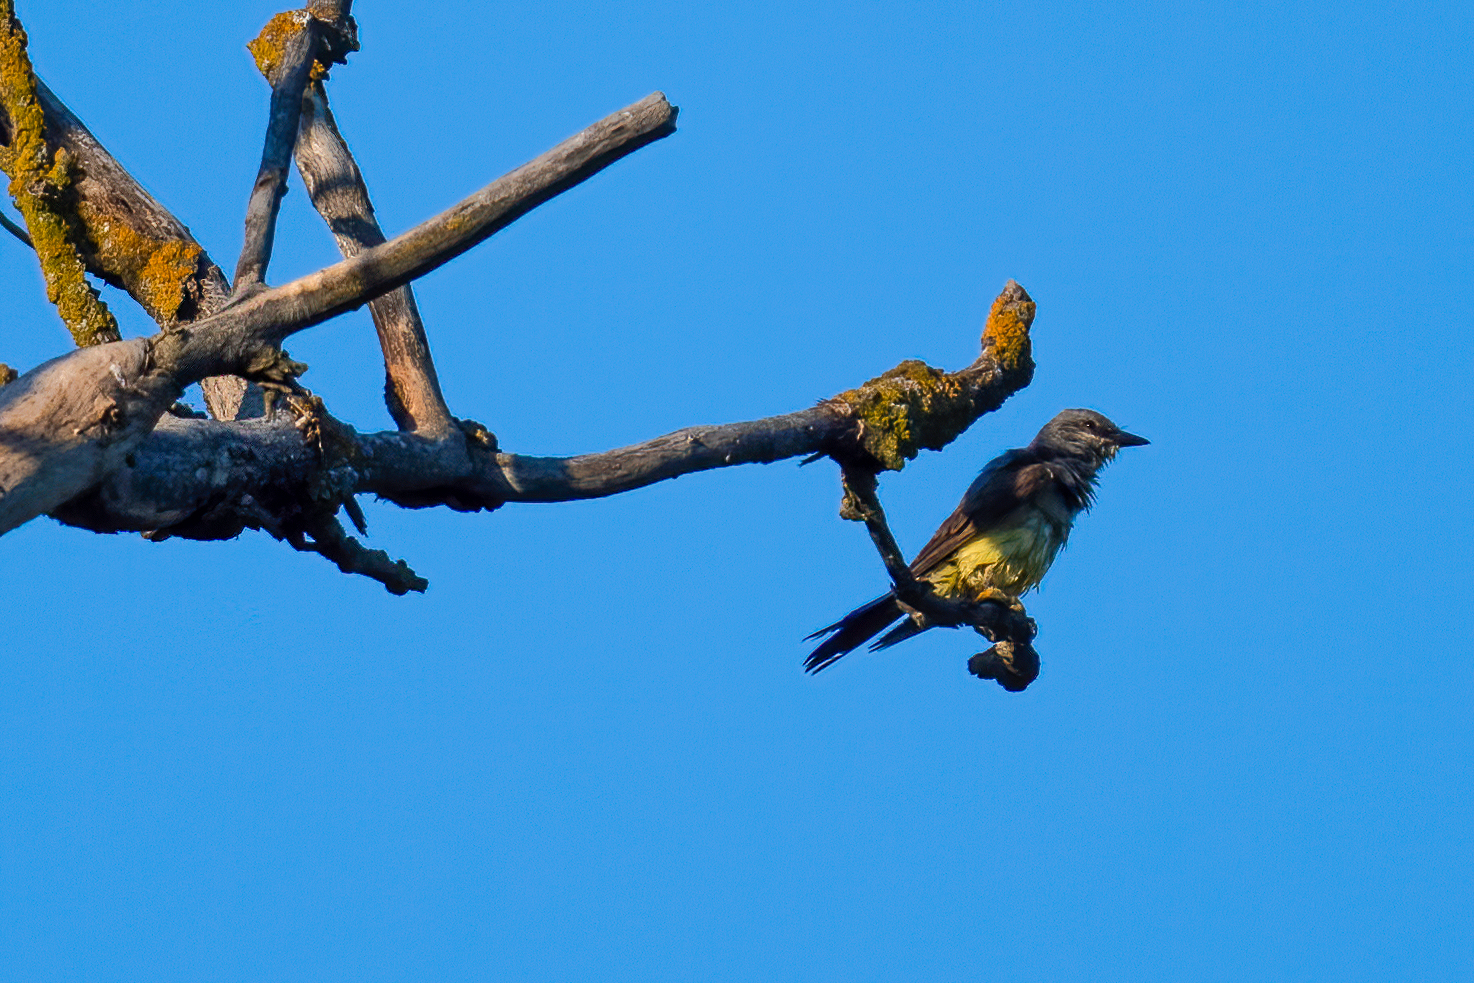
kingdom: Animalia
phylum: Chordata
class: Aves
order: Passeriformes
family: Tyrannidae
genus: Tyrannus
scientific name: Tyrannus verticalis
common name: Western kingbird
